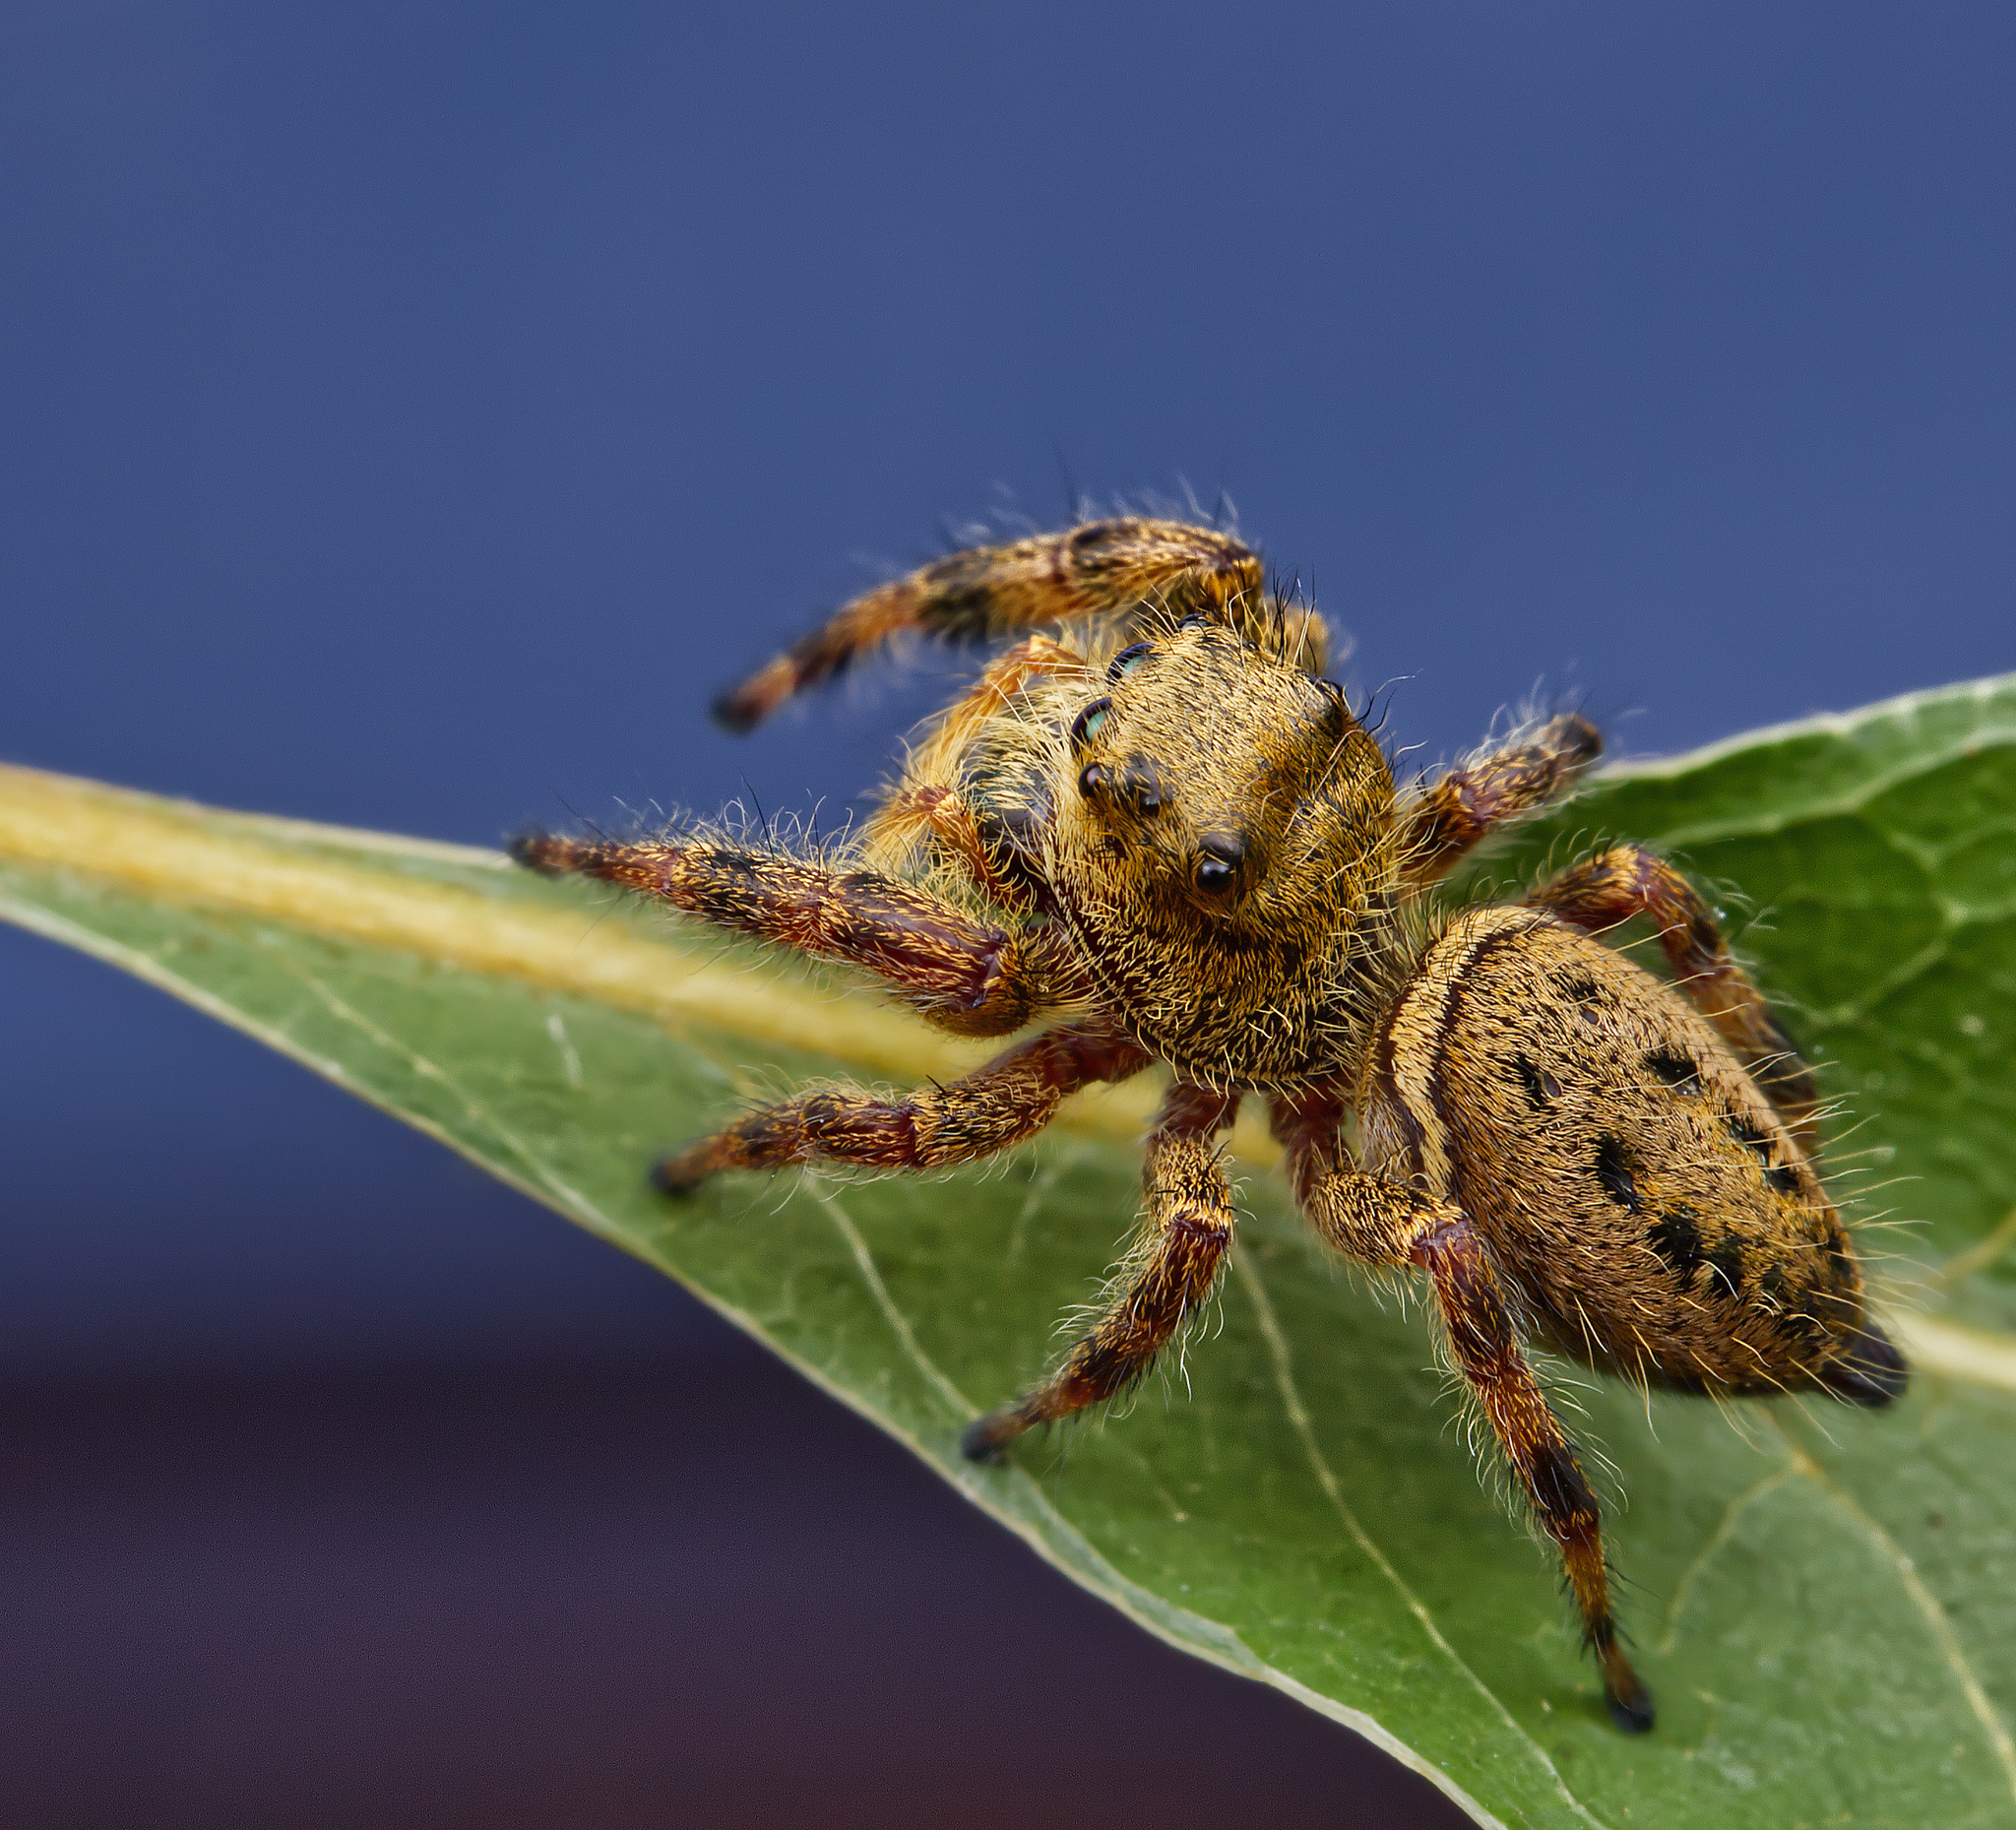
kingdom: Animalia
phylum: Arthropoda
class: Arachnida
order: Araneae
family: Salticidae
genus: Phidippus
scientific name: Phidippus clarus
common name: Brilliant jumping spider
